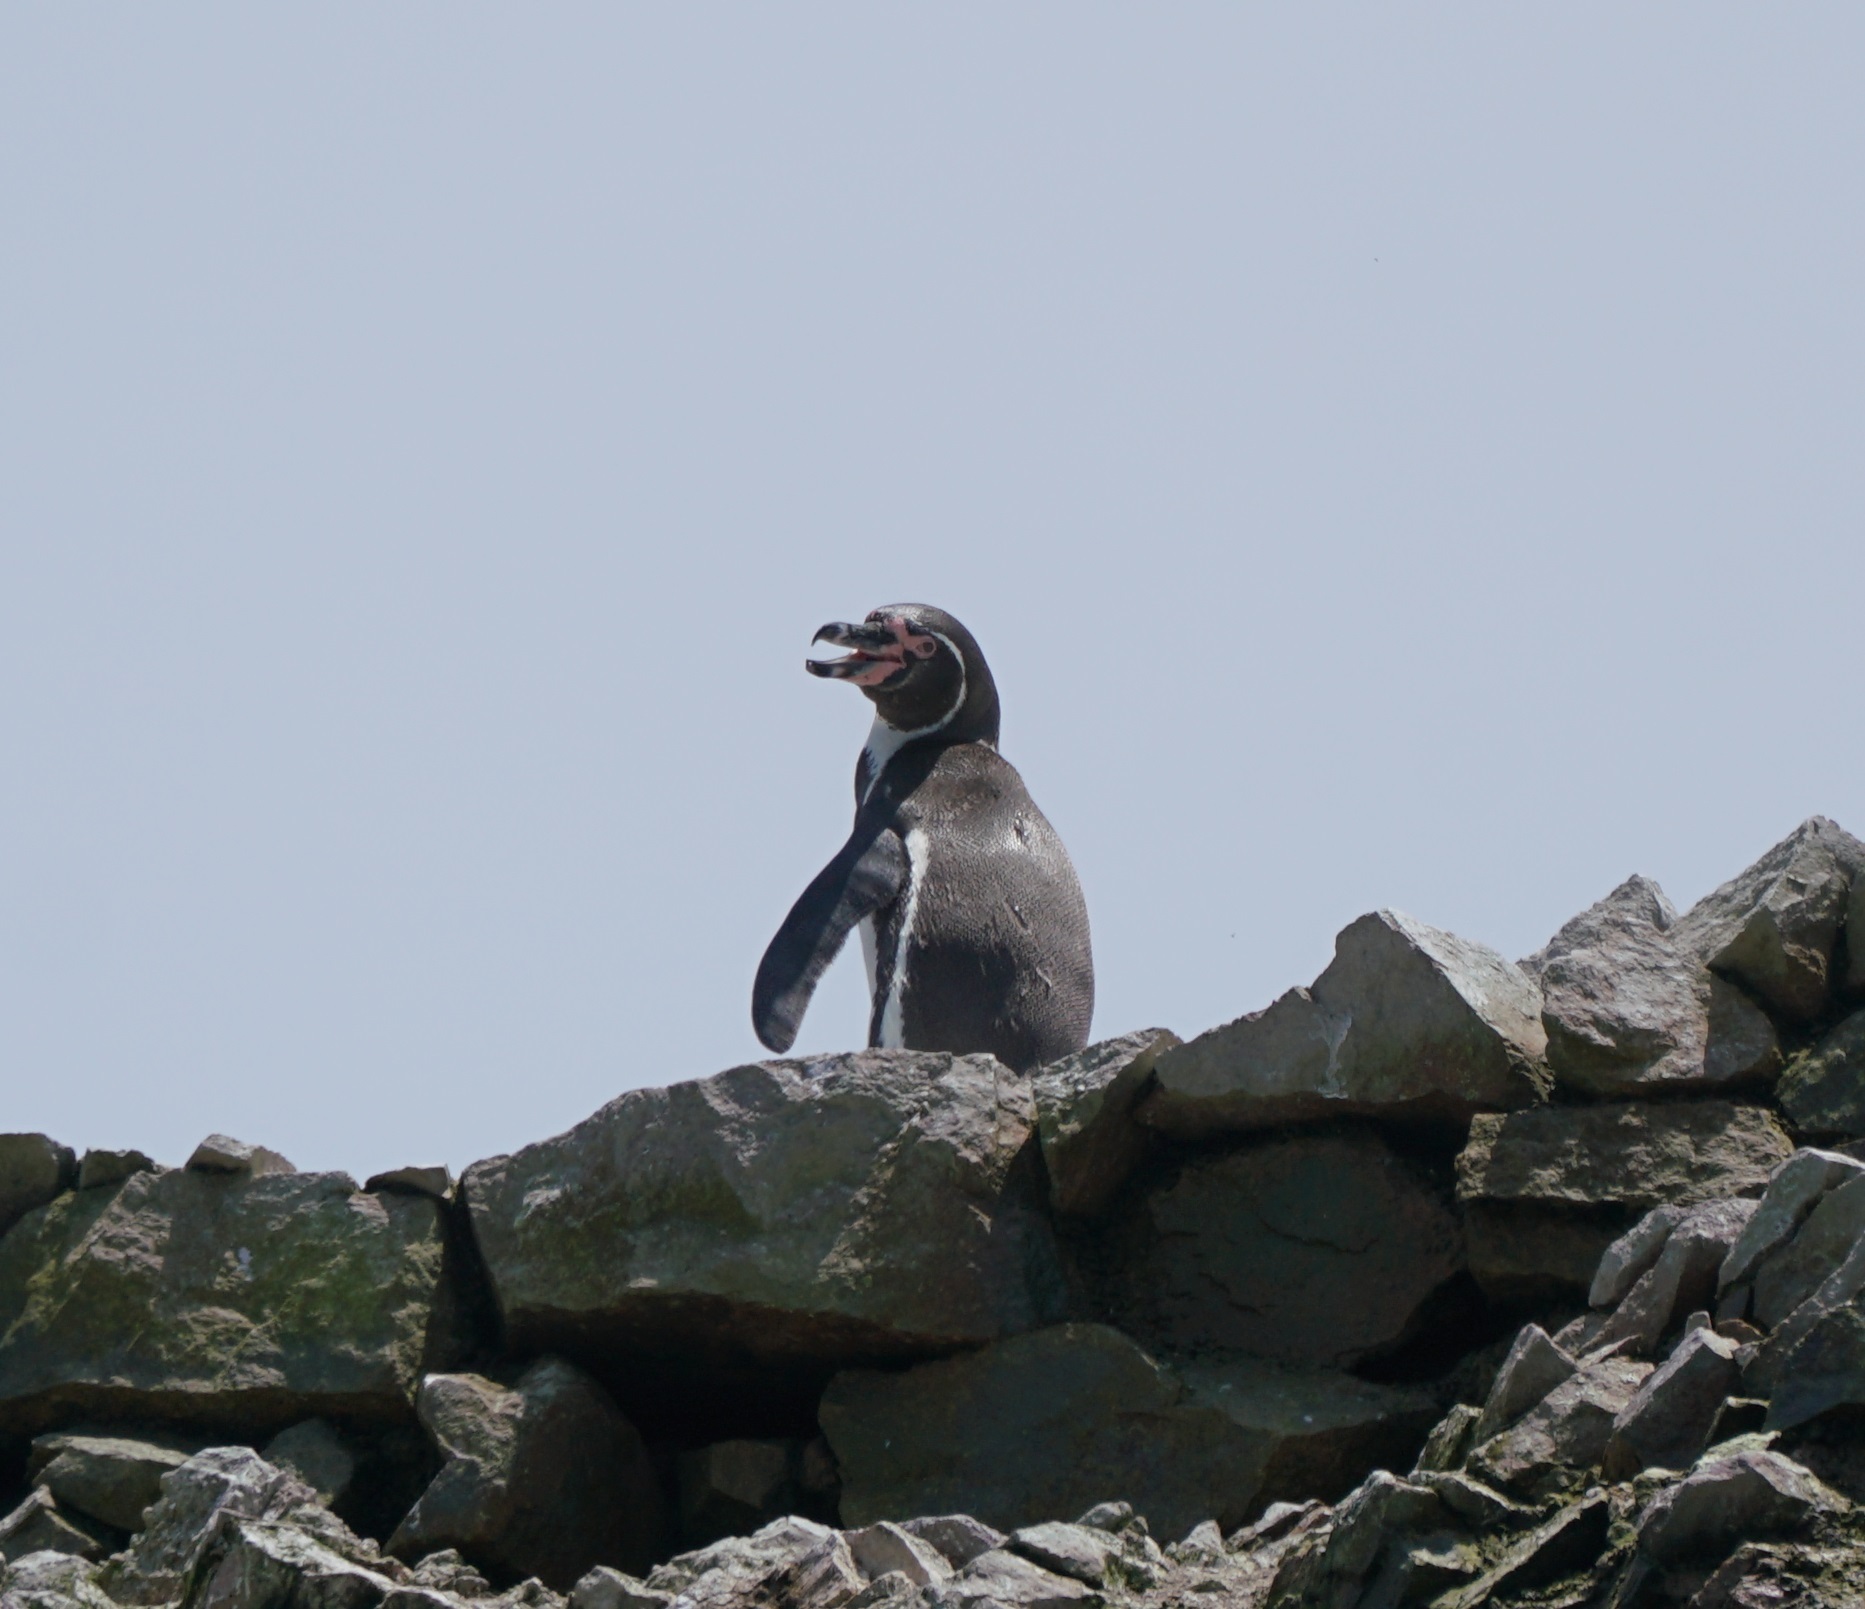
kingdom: Animalia
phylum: Chordata
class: Aves
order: Sphenisciformes
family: Spheniscidae
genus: Spheniscus
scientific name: Spheniscus humboldti
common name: Humboldt penguin
